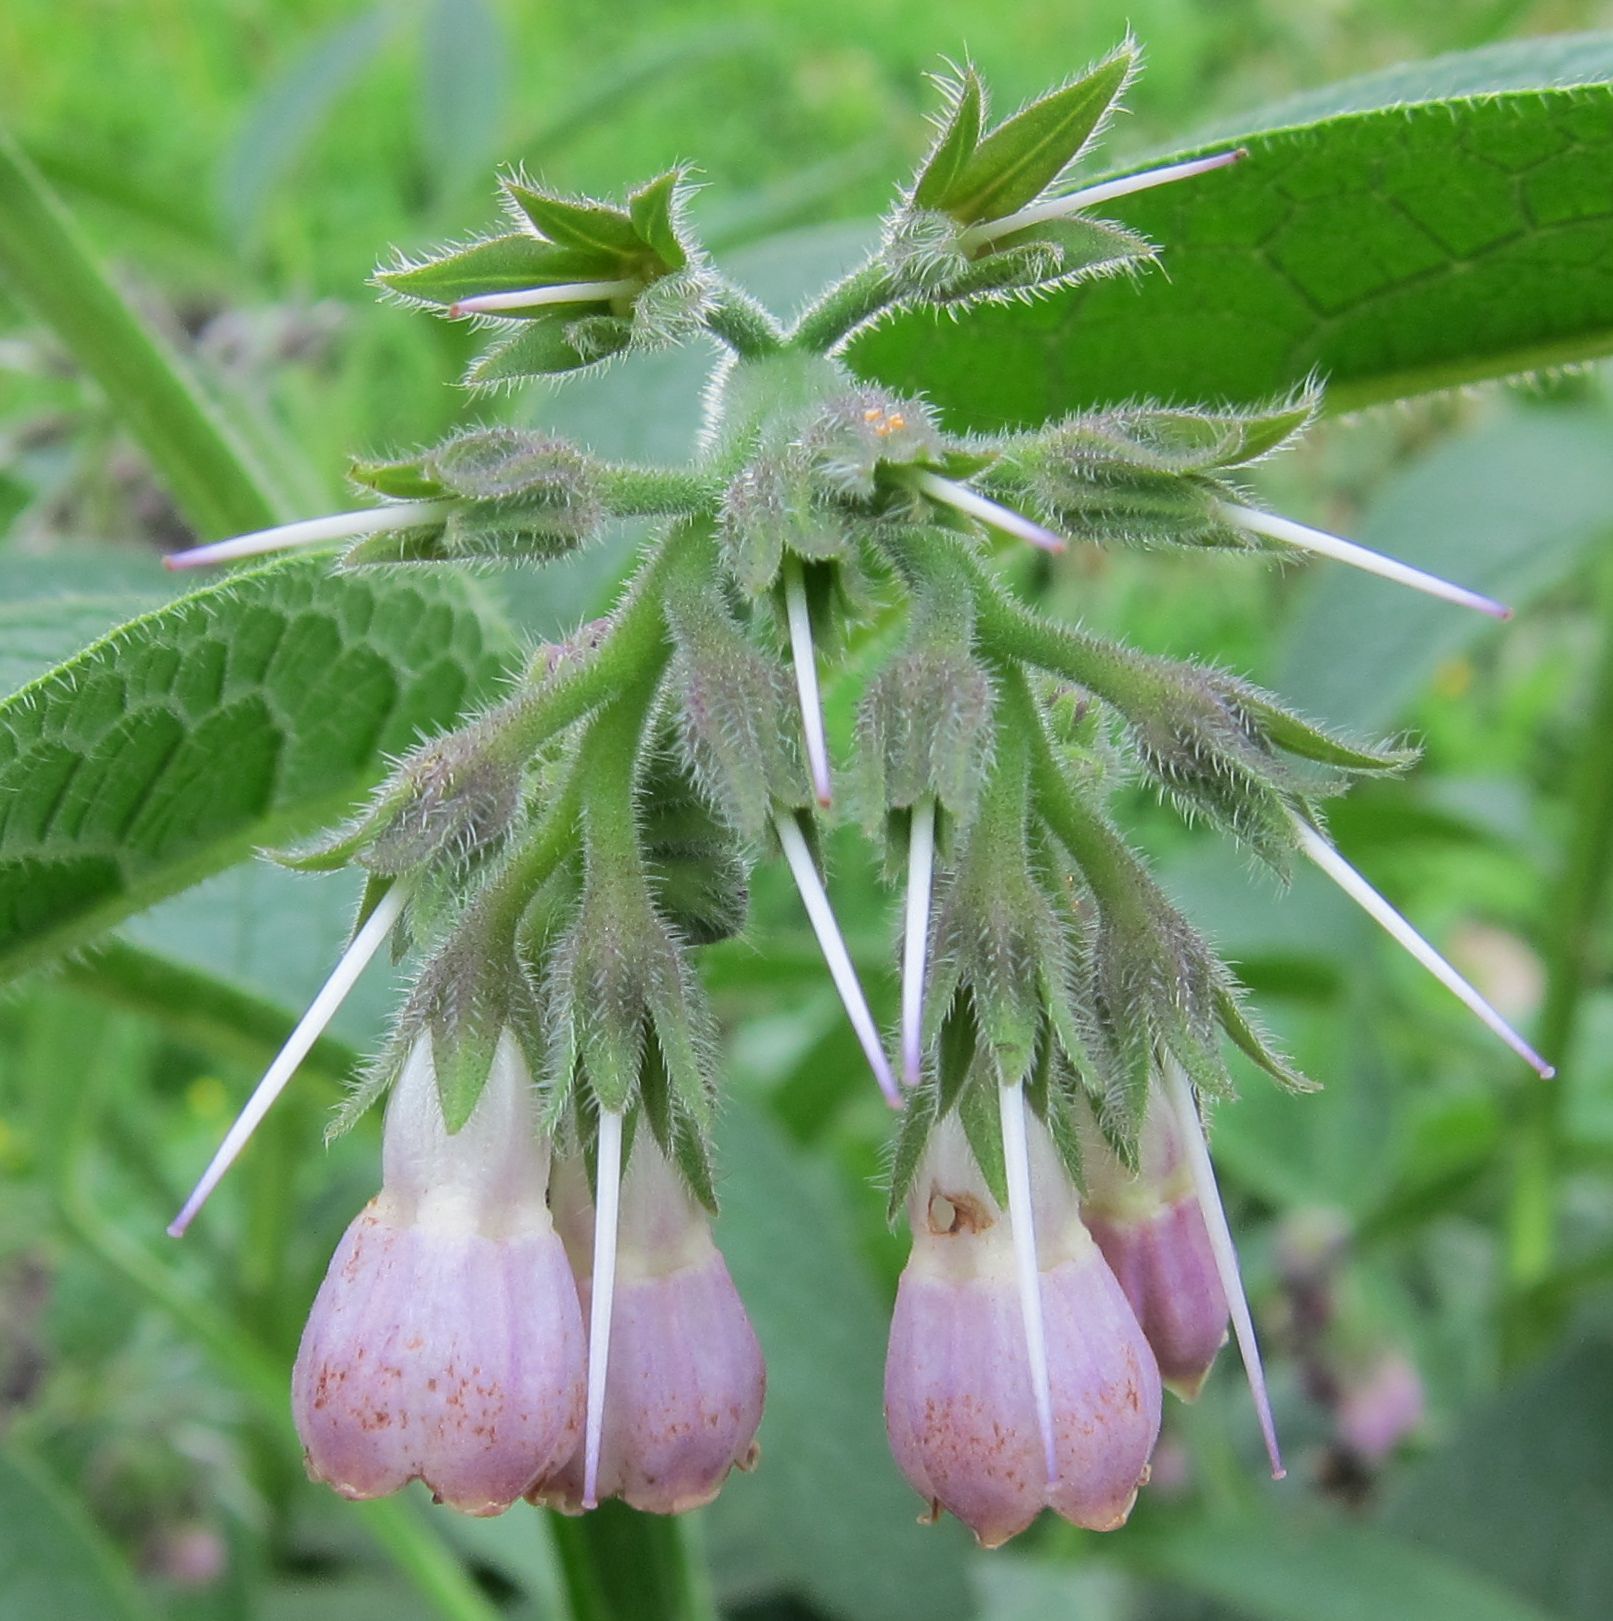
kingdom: Plantae
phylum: Tracheophyta
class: Magnoliopsida
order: Boraginales
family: Boraginaceae
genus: Symphytum
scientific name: Symphytum uplandicum
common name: Russian comfrey
